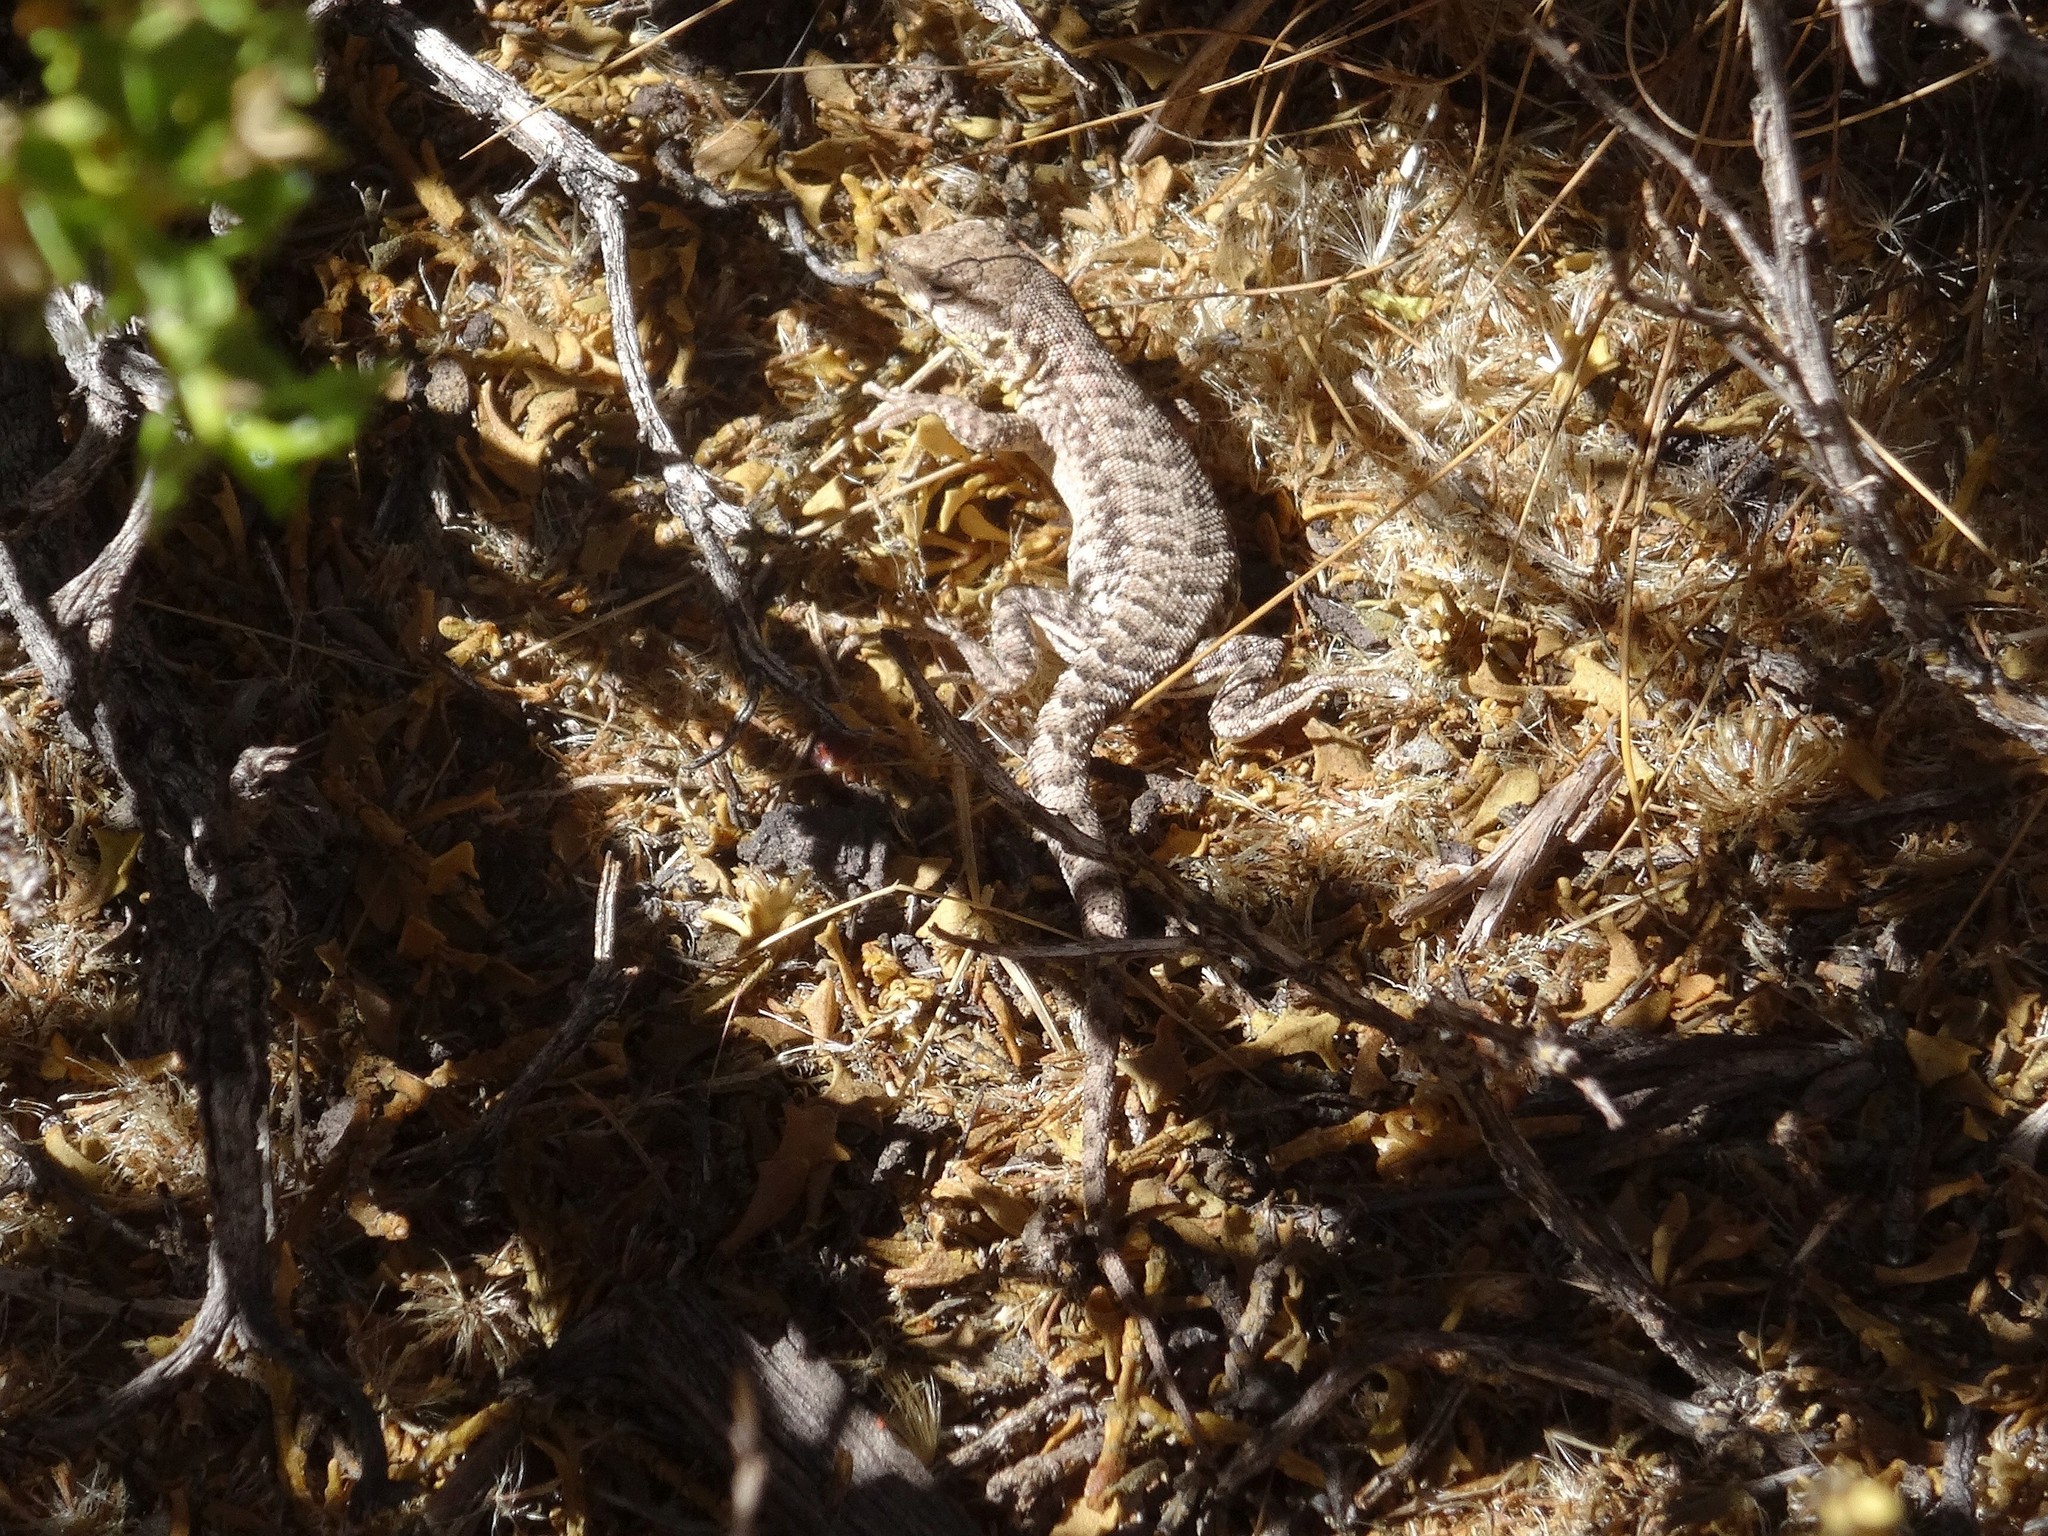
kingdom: Animalia
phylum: Chordata
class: Squamata
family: Liolaemidae
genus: Liolaemus
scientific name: Liolaemus schmidti
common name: Schmidt's tree iguana
